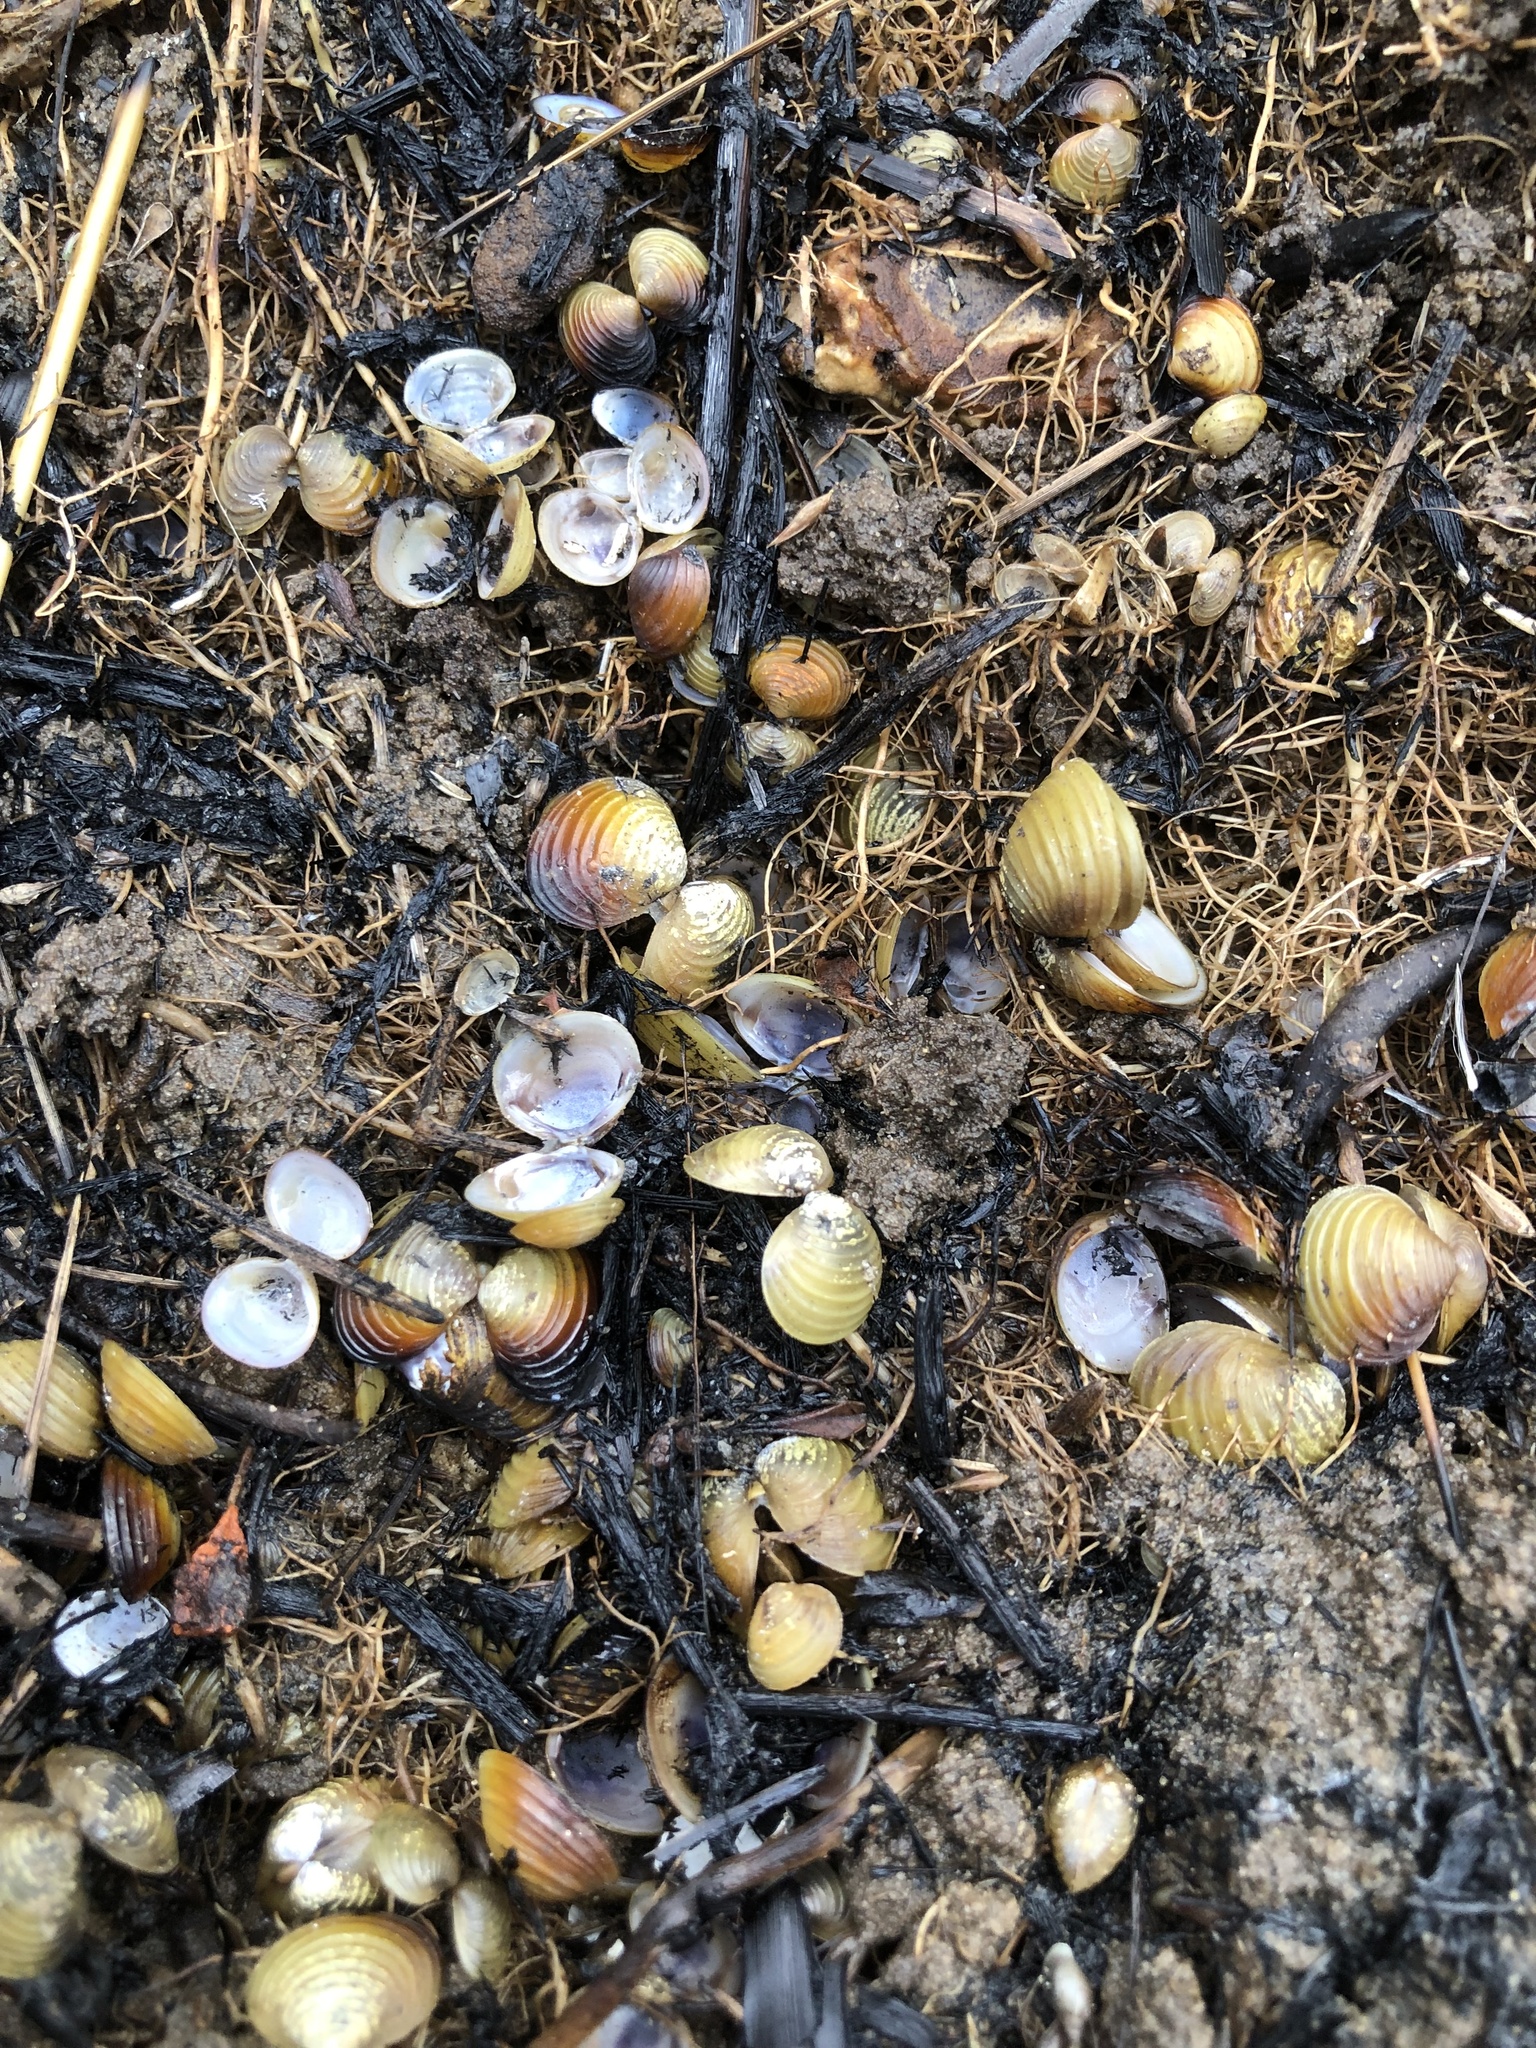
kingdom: Animalia
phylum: Mollusca
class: Bivalvia
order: Venerida
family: Cyrenidae
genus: Corbicula
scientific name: Corbicula fluminea
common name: Asian clam
